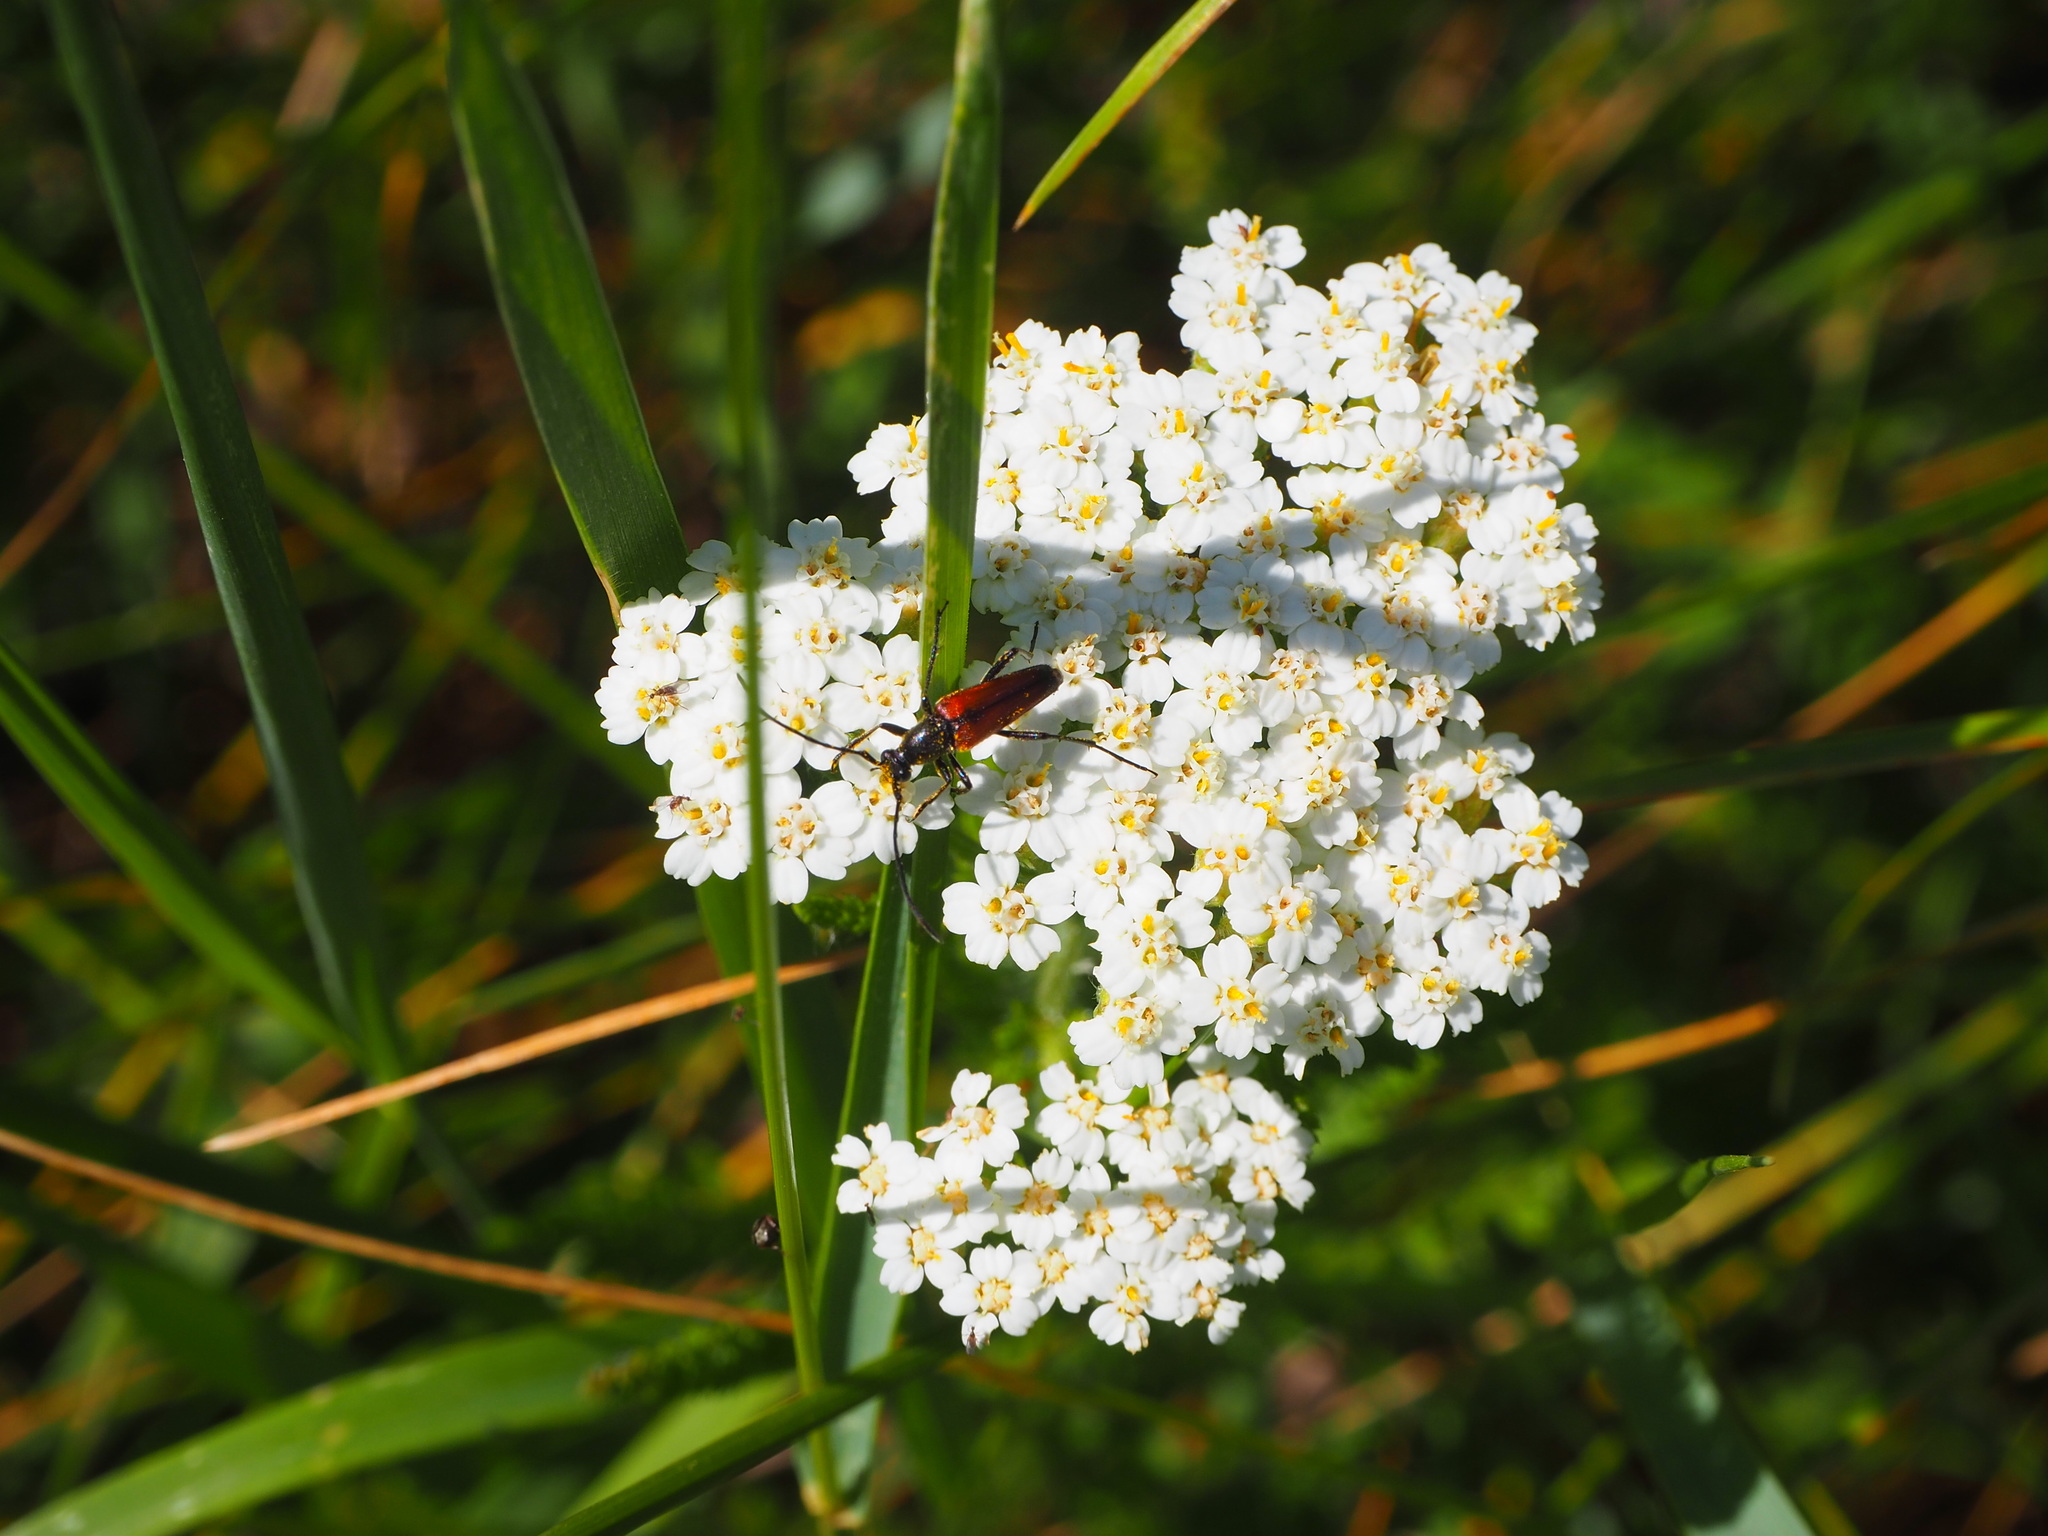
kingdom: Animalia
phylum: Arthropoda
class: Insecta
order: Coleoptera
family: Cerambycidae
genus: Stenurella
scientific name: Stenurella bifasciata
